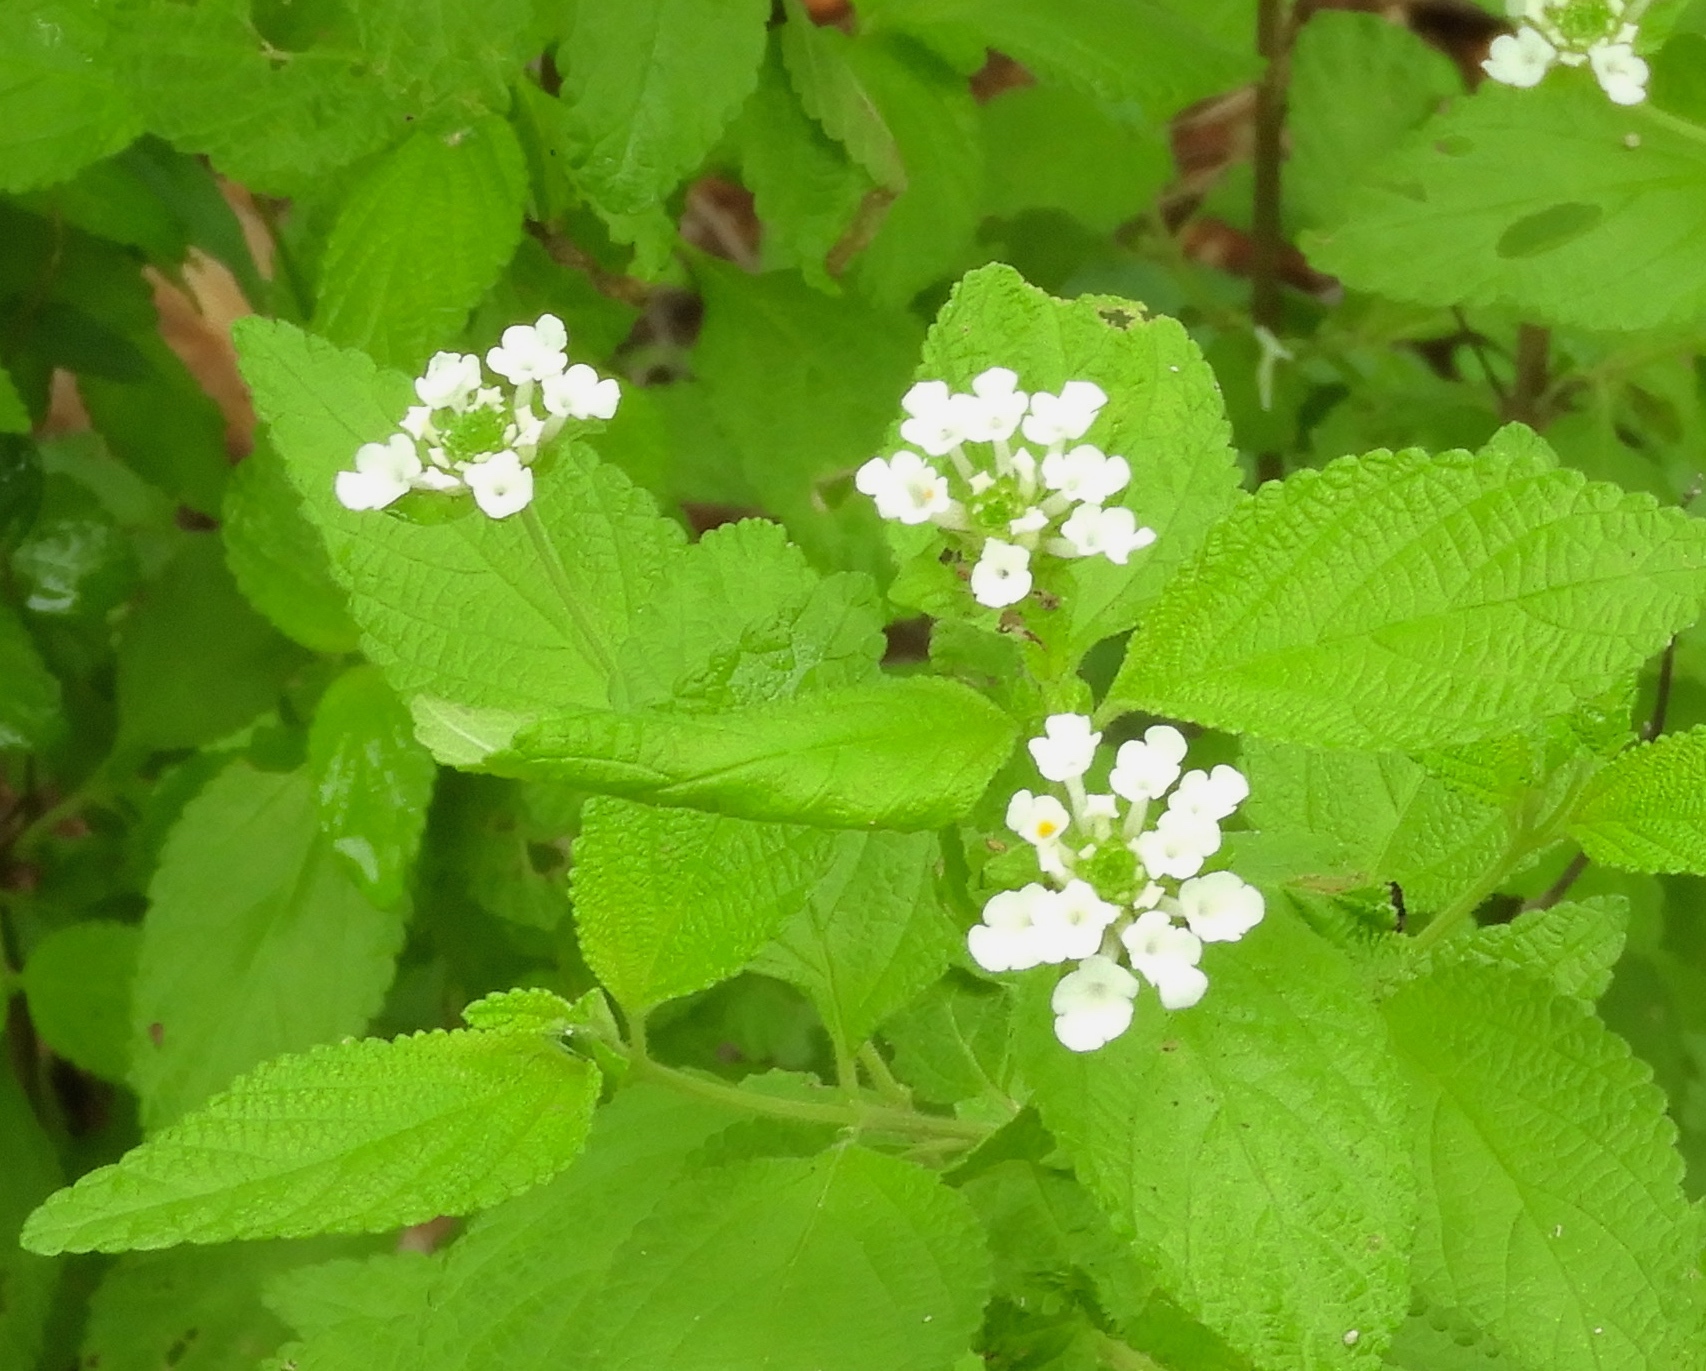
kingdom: Plantae
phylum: Tracheophyta
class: Magnoliopsida
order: Lamiales
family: Verbenaceae
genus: Lantana
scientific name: Lantana velutina
